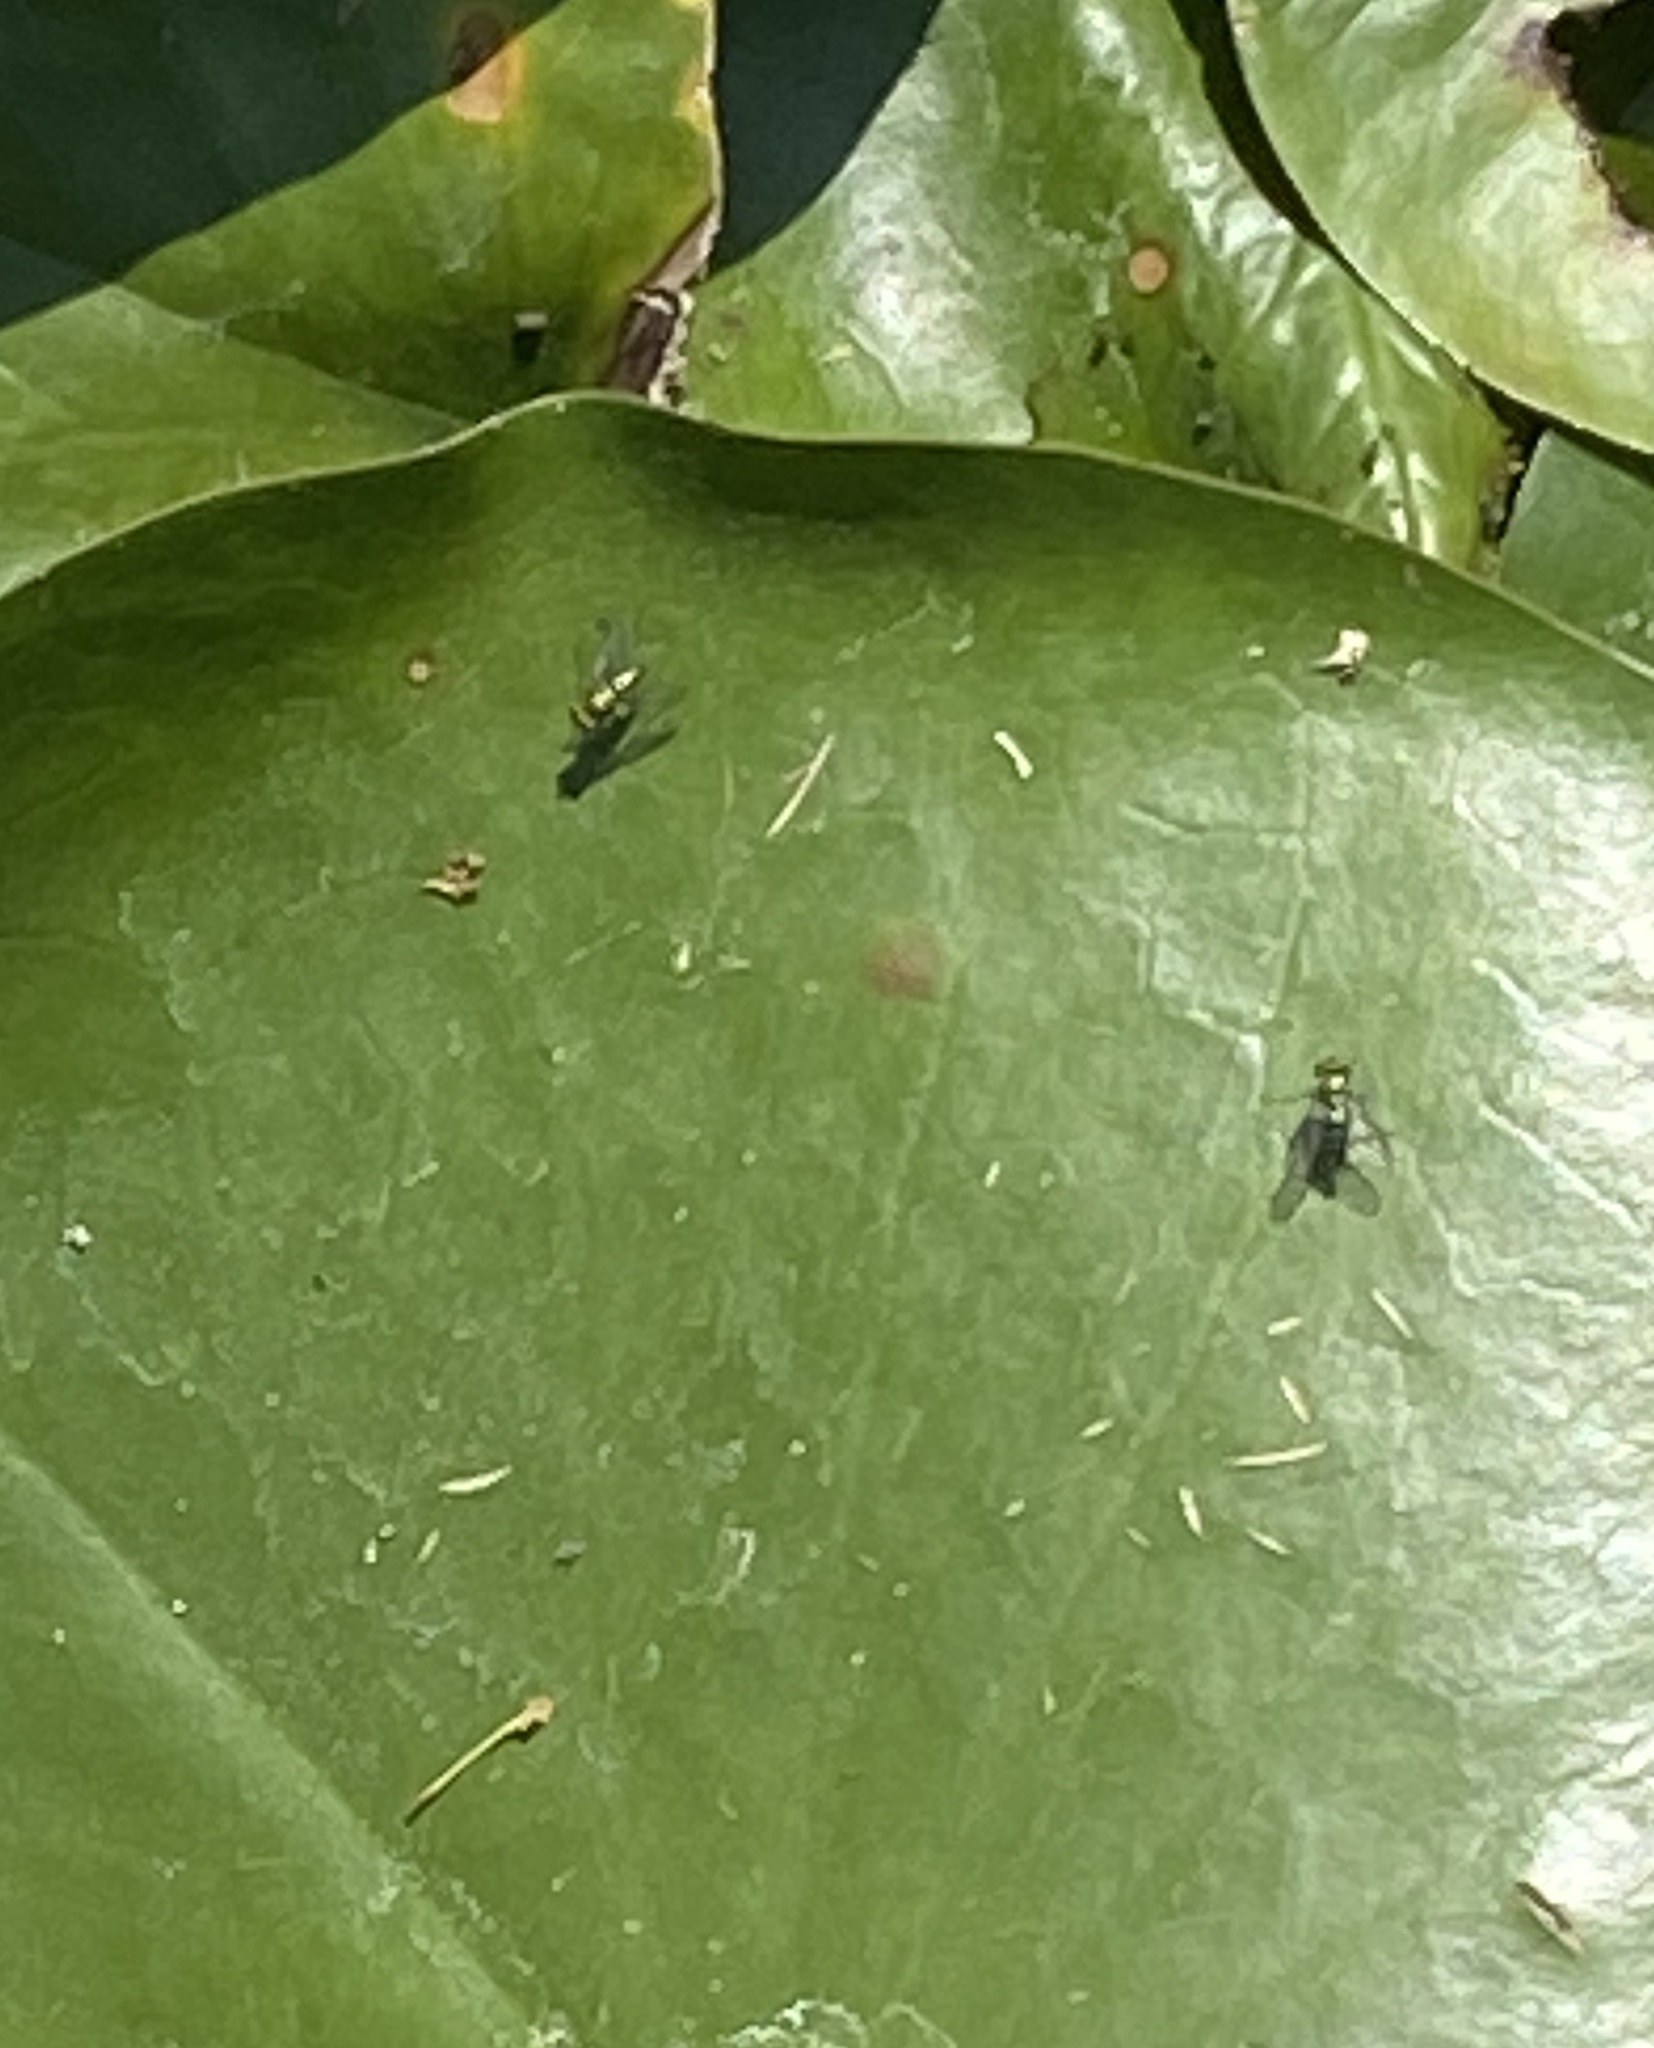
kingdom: Animalia
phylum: Arthropoda
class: Insecta
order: Diptera
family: Dolichopodidae
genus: Condylostylus
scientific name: Condylostylus longicornis
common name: Long-legged fly
